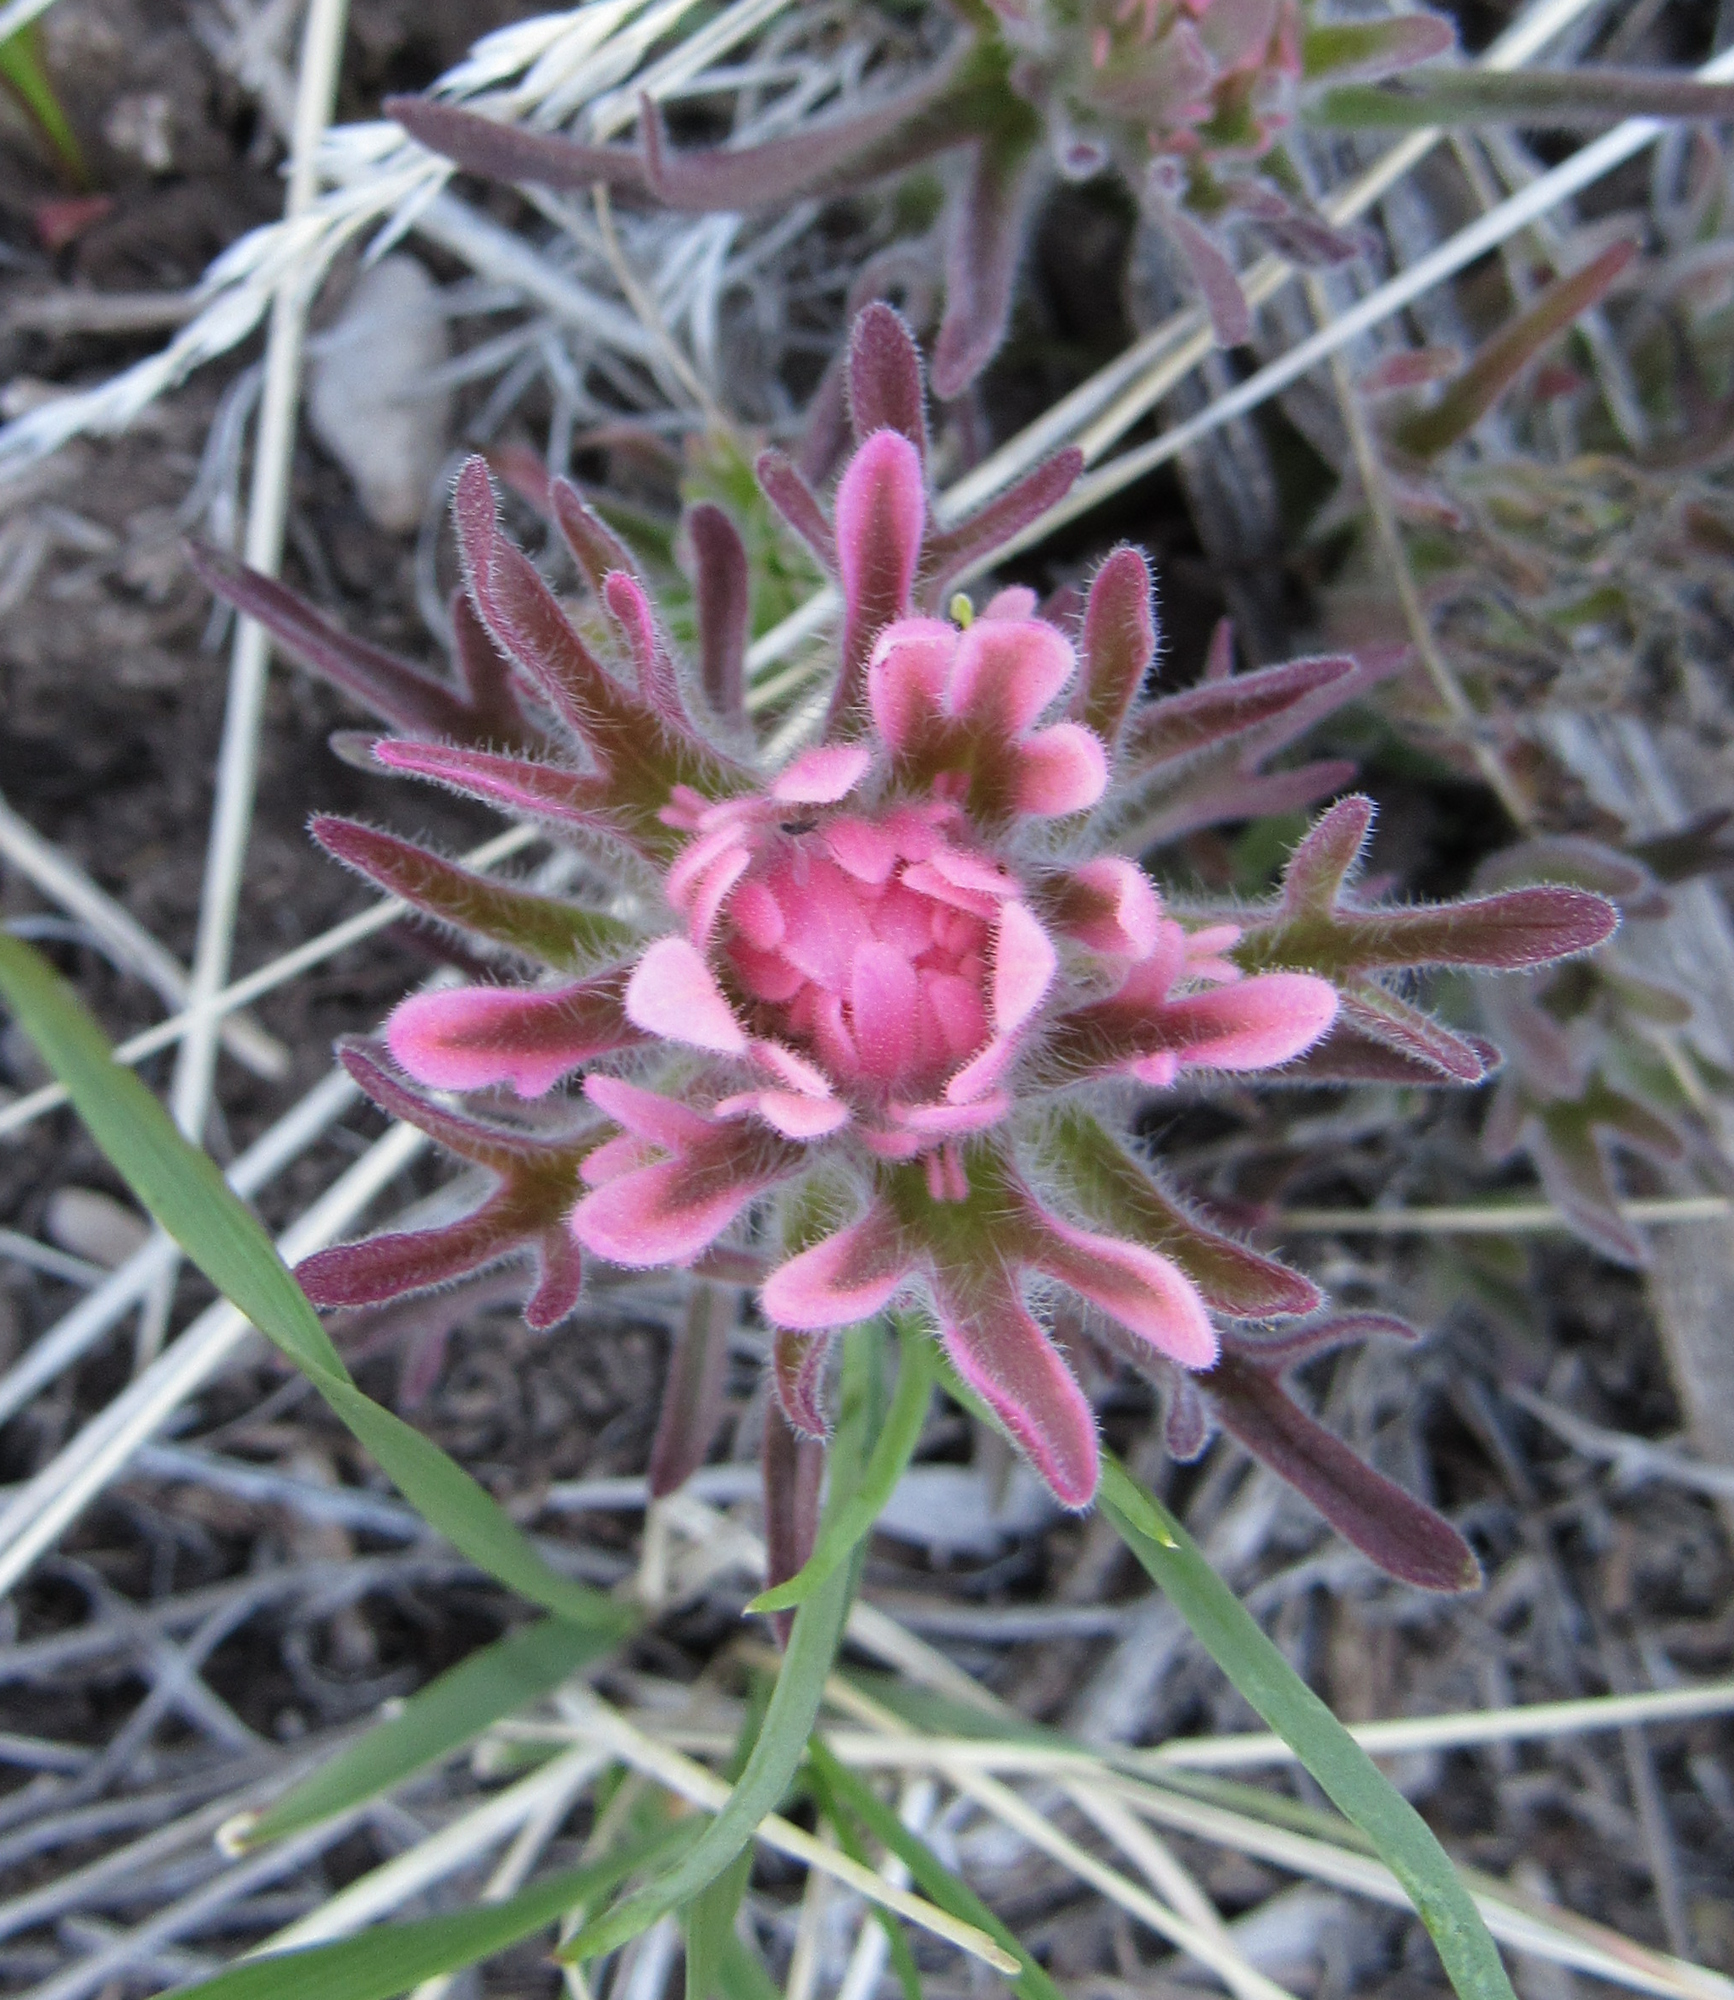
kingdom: Plantae
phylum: Tracheophyta
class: Magnoliopsida
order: Lamiales
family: Orobanchaceae
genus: Castilleja
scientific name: Castilleja angustifolia
